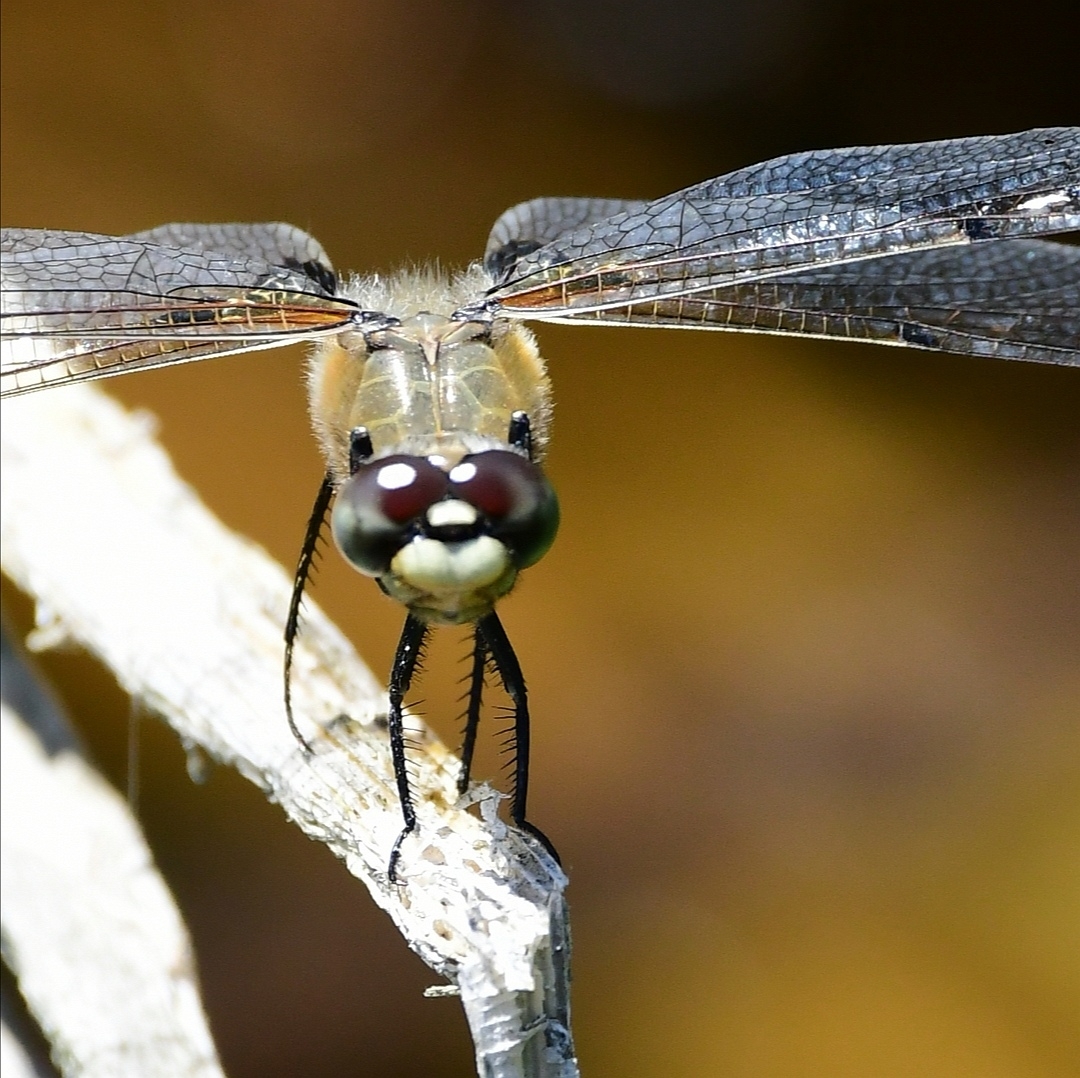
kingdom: Animalia
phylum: Arthropoda
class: Insecta
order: Odonata
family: Libellulidae
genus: Libellula
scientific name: Libellula quadrimaculata
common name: Four-spotted chaser
